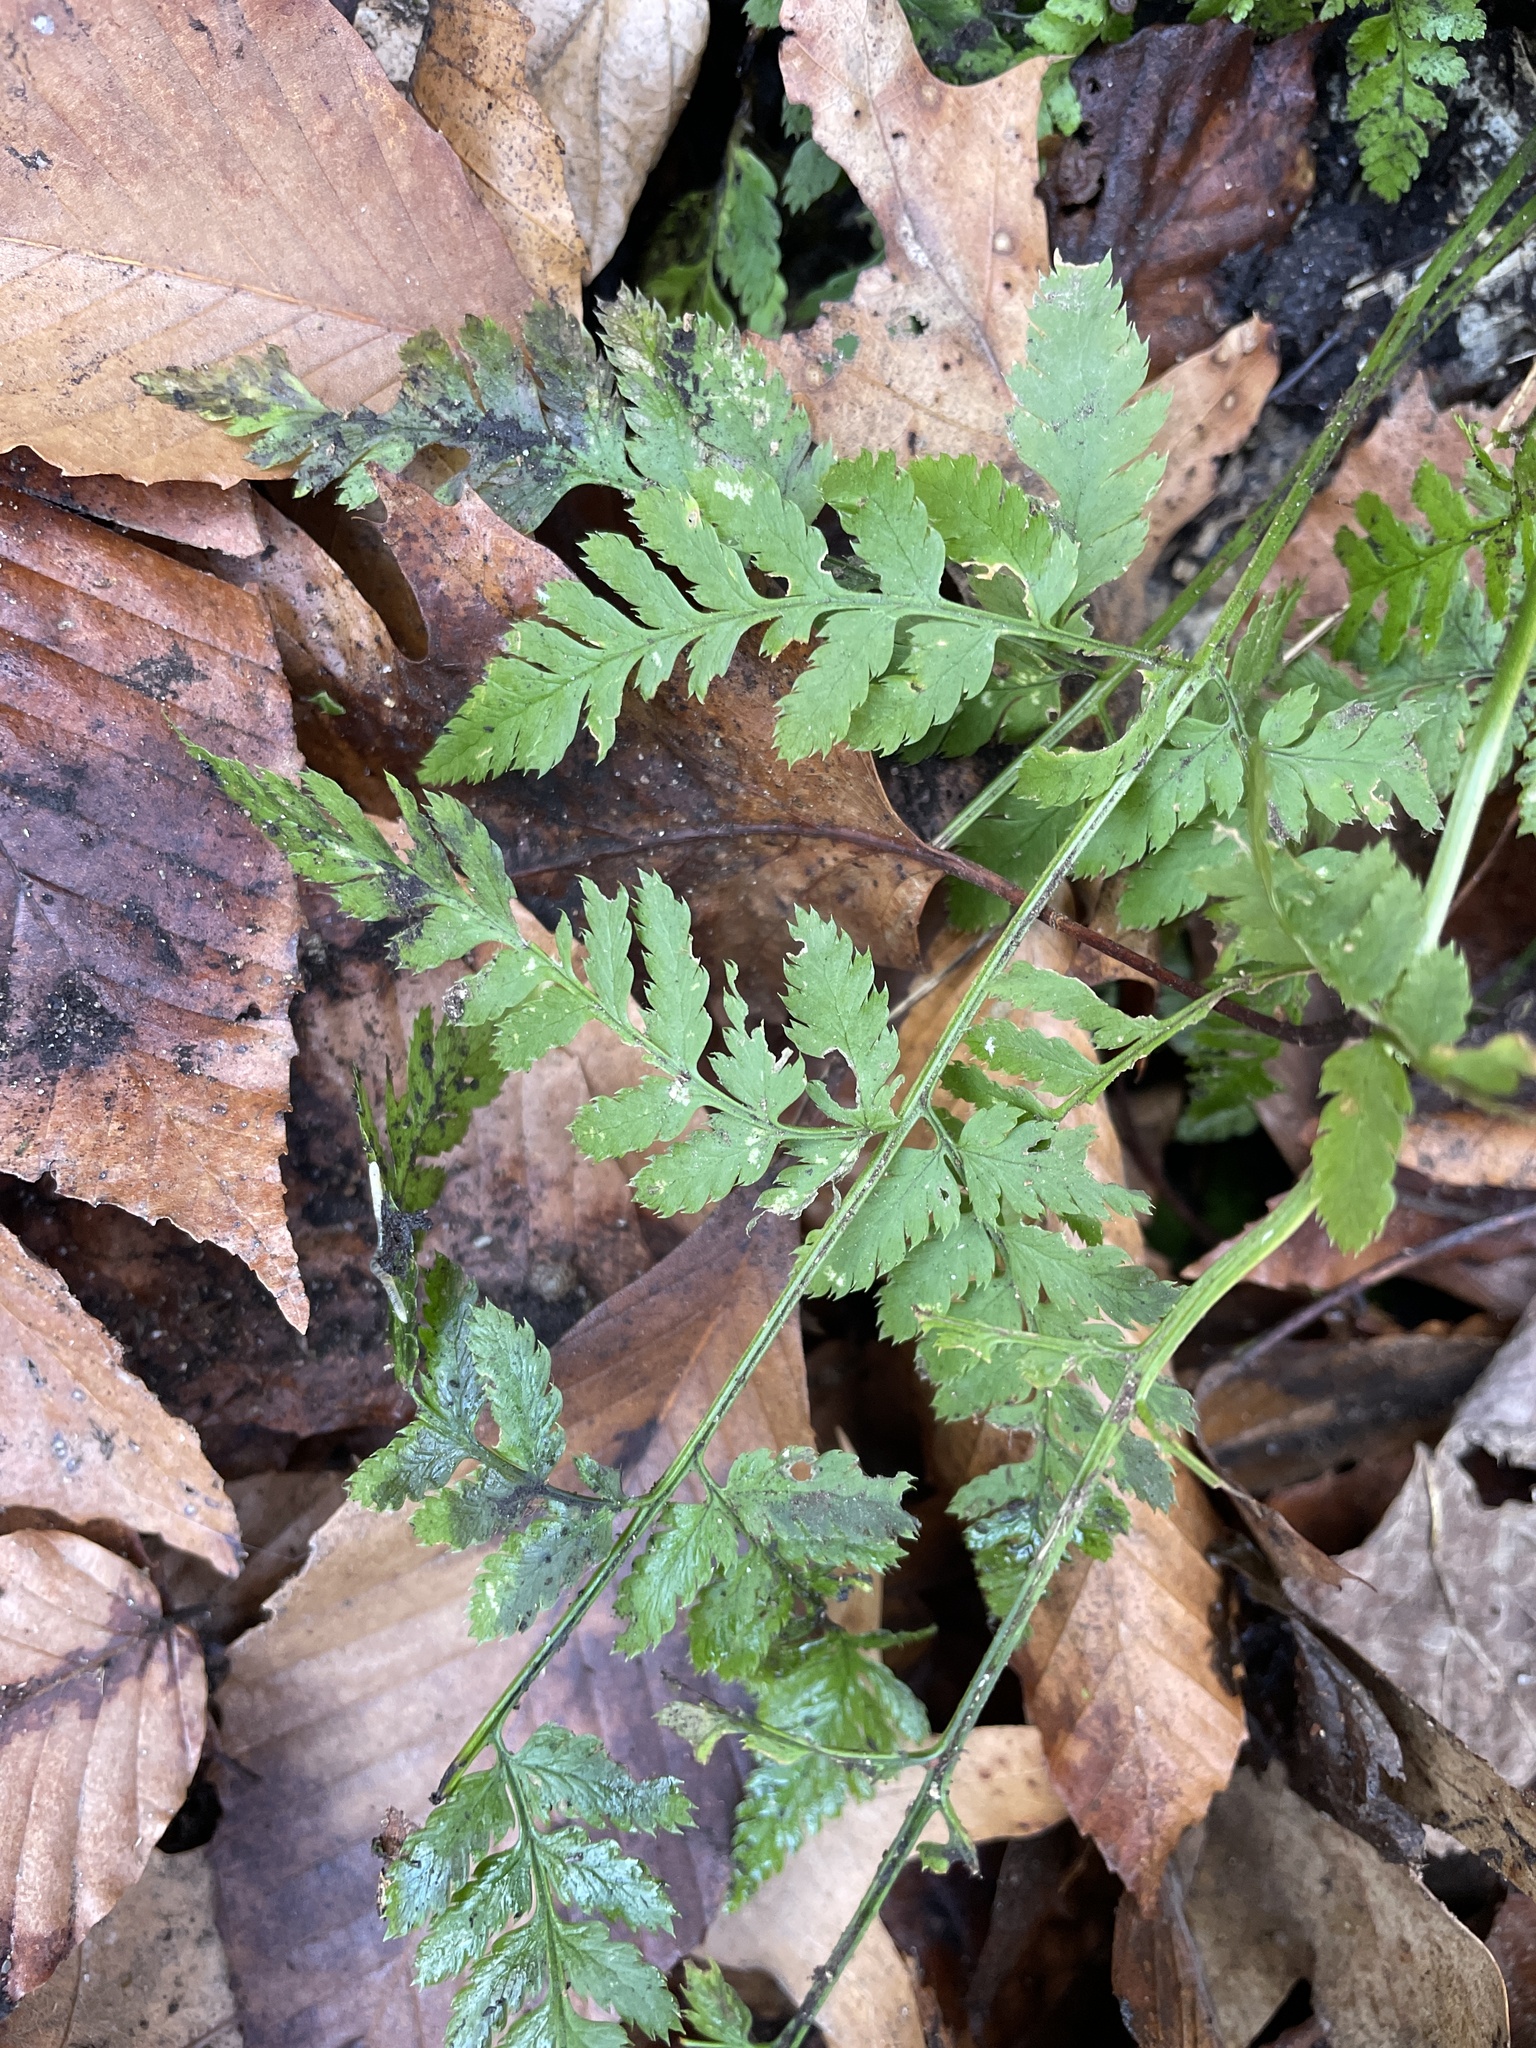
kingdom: Plantae
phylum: Tracheophyta
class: Polypodiopsida
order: Polypodiales
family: Dryopteridaceae
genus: Dryopteris
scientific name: Dryopteris carthusiana
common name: Narrow buckler-fern
